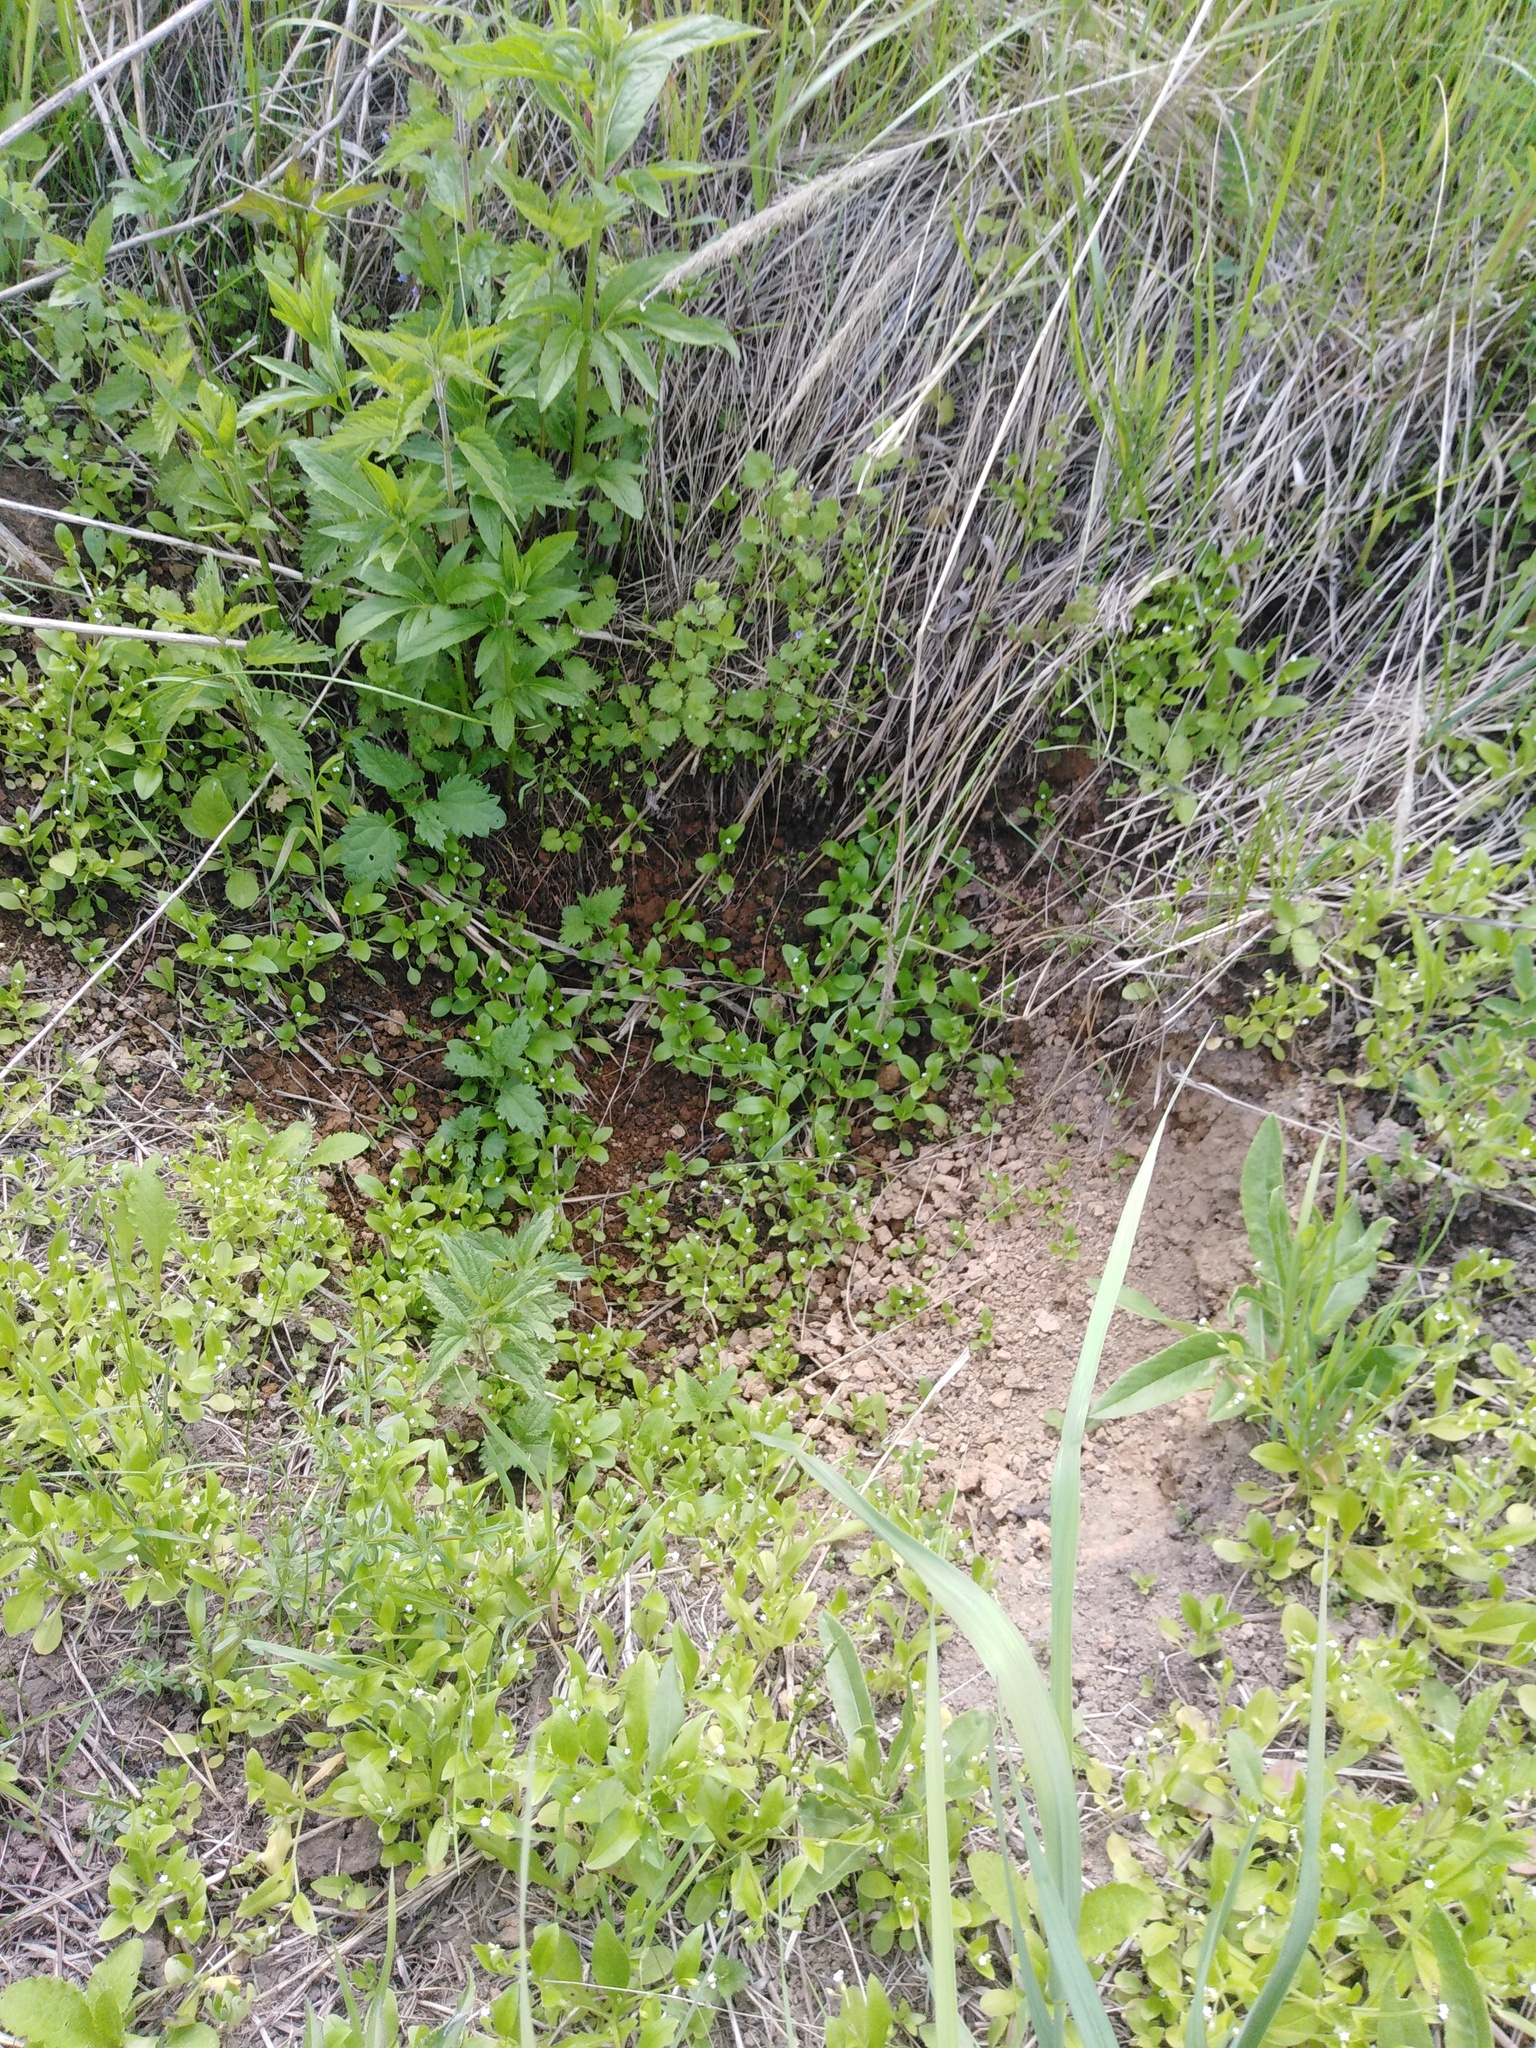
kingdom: Plantae
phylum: Tracheophyta
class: Magnoliopsida
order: Boraginales
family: Boraginaceae
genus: Myosotis
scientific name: Myosotis sparsiflora
